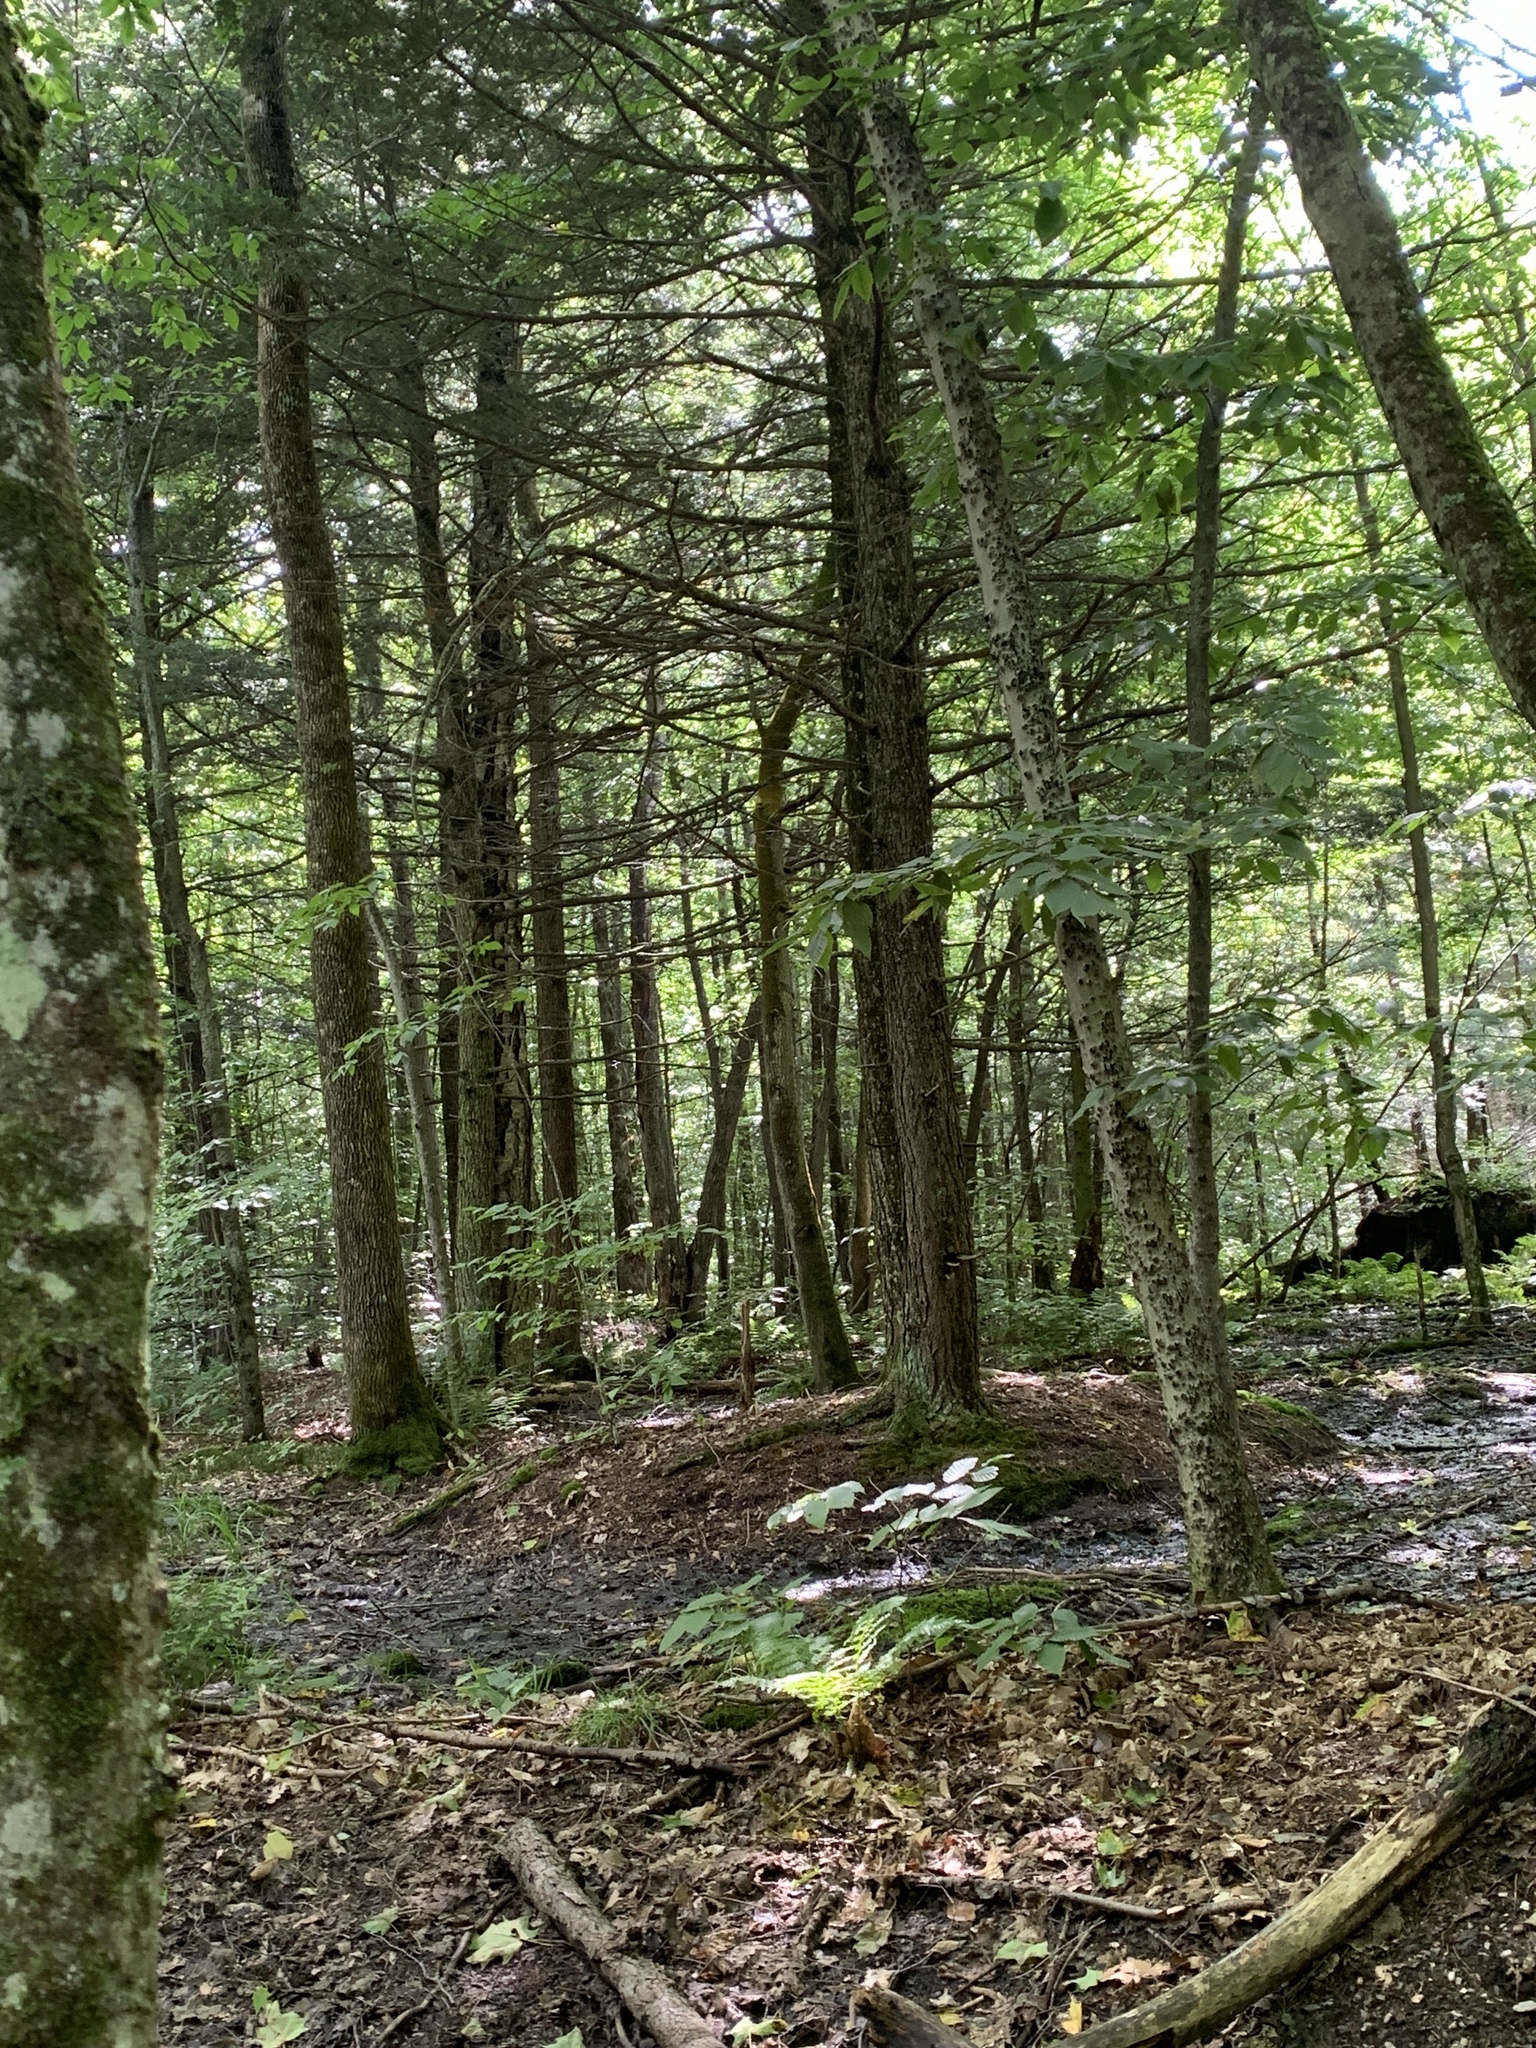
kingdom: Plantae
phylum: Tracheophyta
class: Pinopsida
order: Pinales
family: Pinaceae
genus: Tsuga
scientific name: Tsuga canadensis
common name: Eastern hemlock
